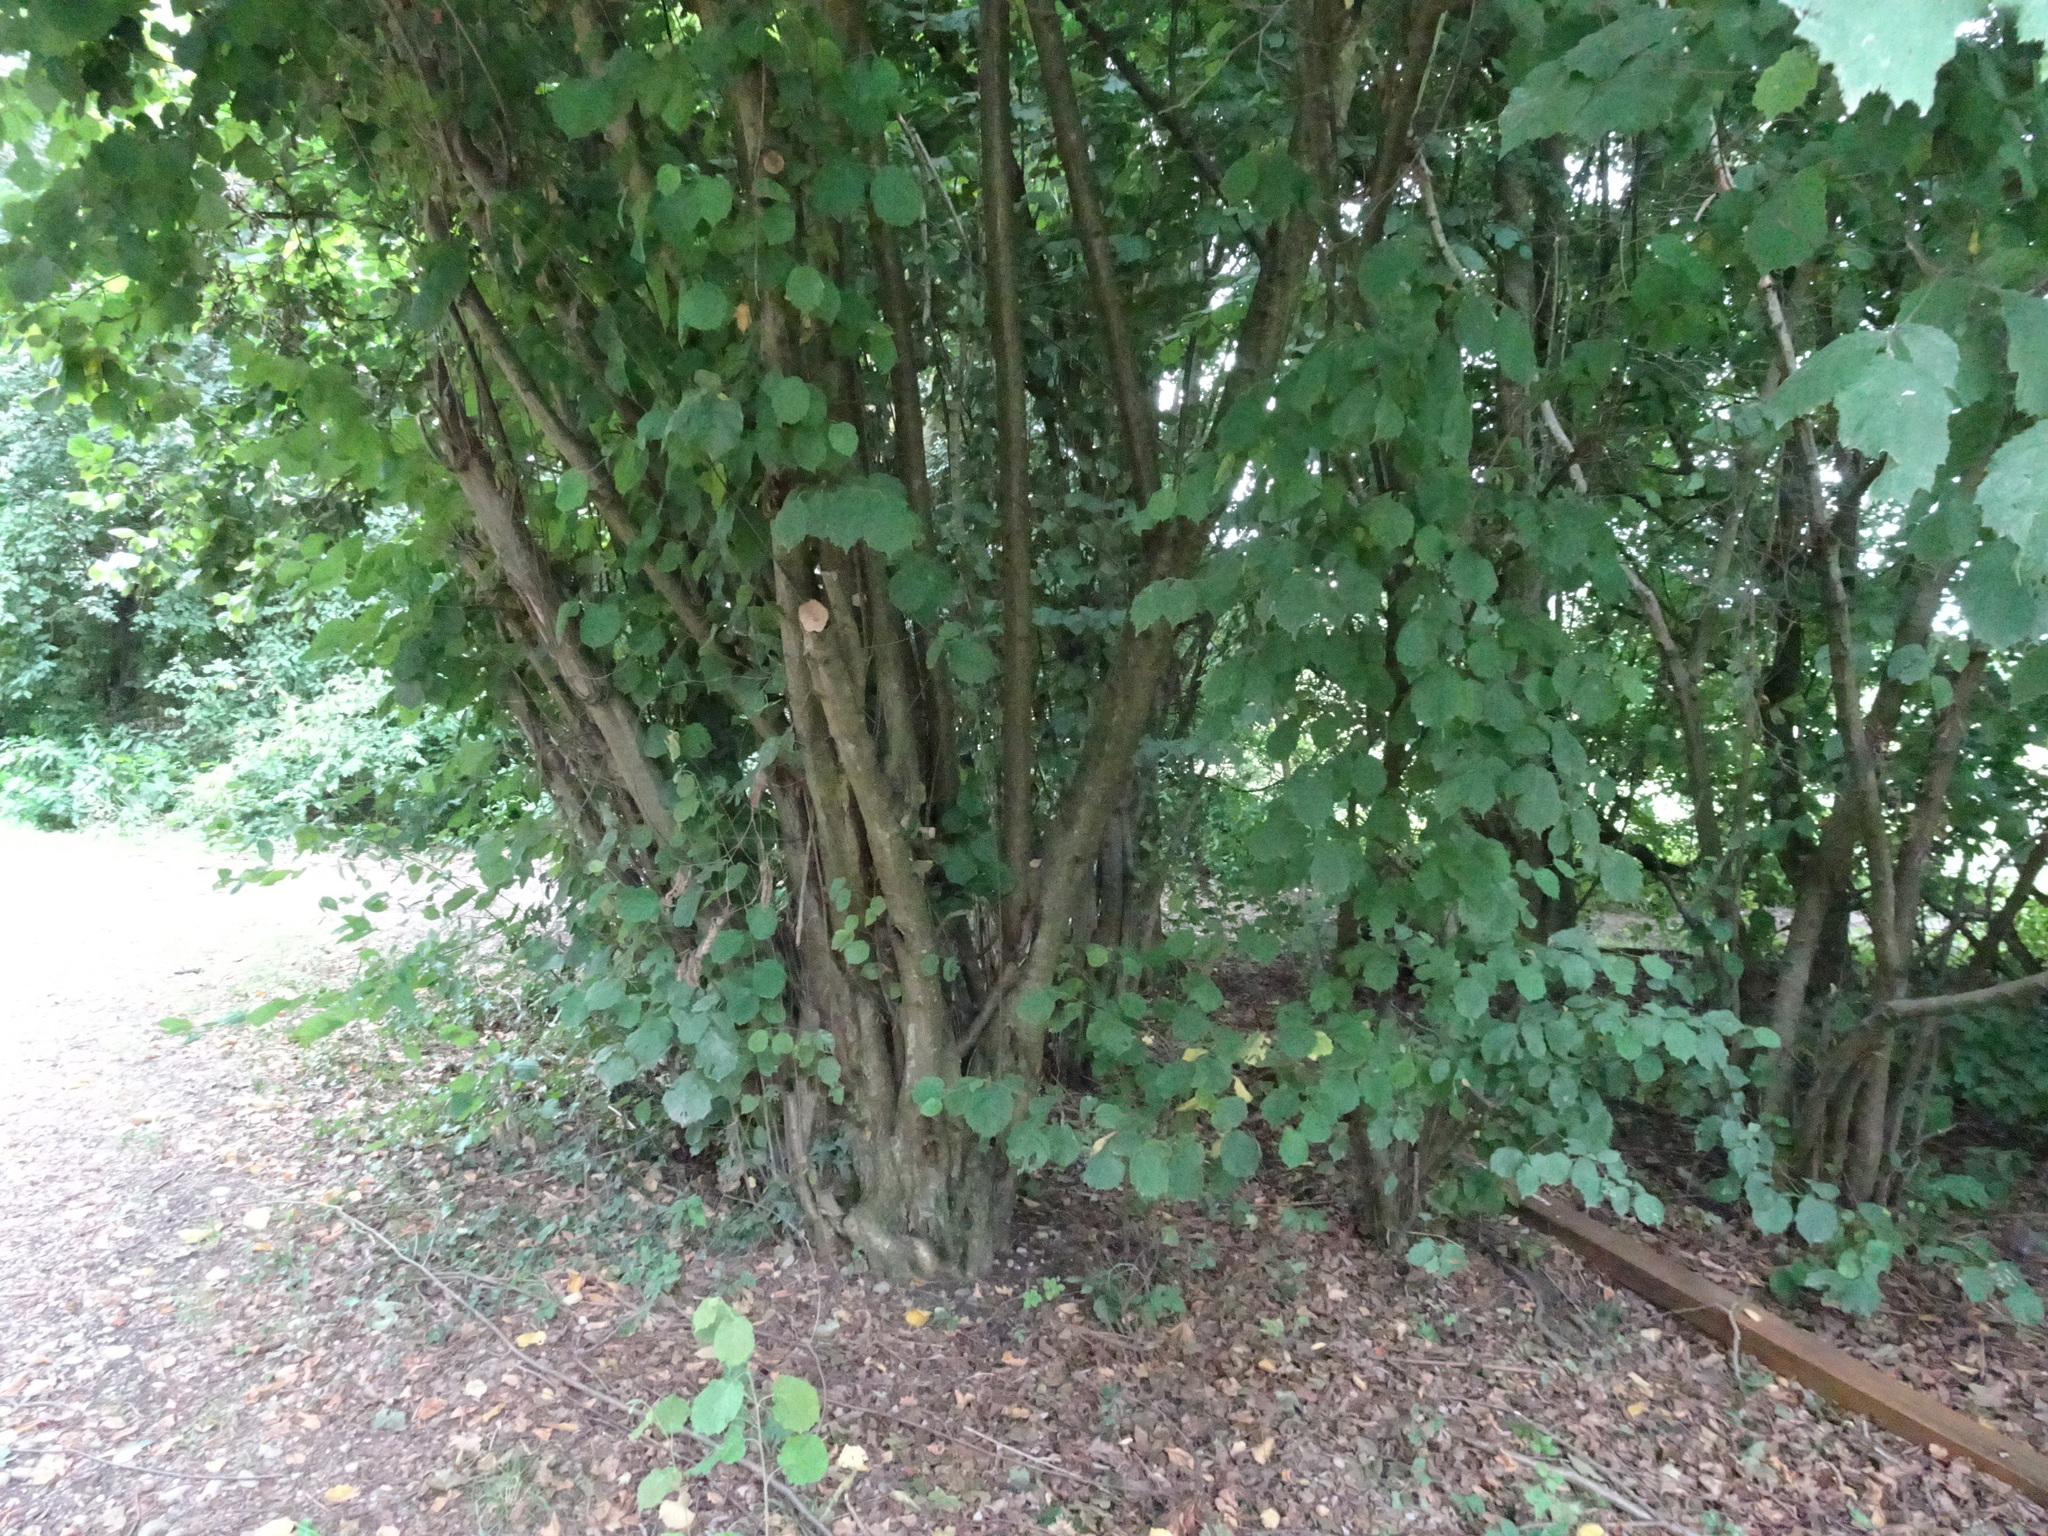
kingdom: Plantae
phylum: Tracheophyta
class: Magnoliopsida
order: Fagales
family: Betulaceae
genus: Corylus
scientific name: Corylus avellana
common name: European hazel
